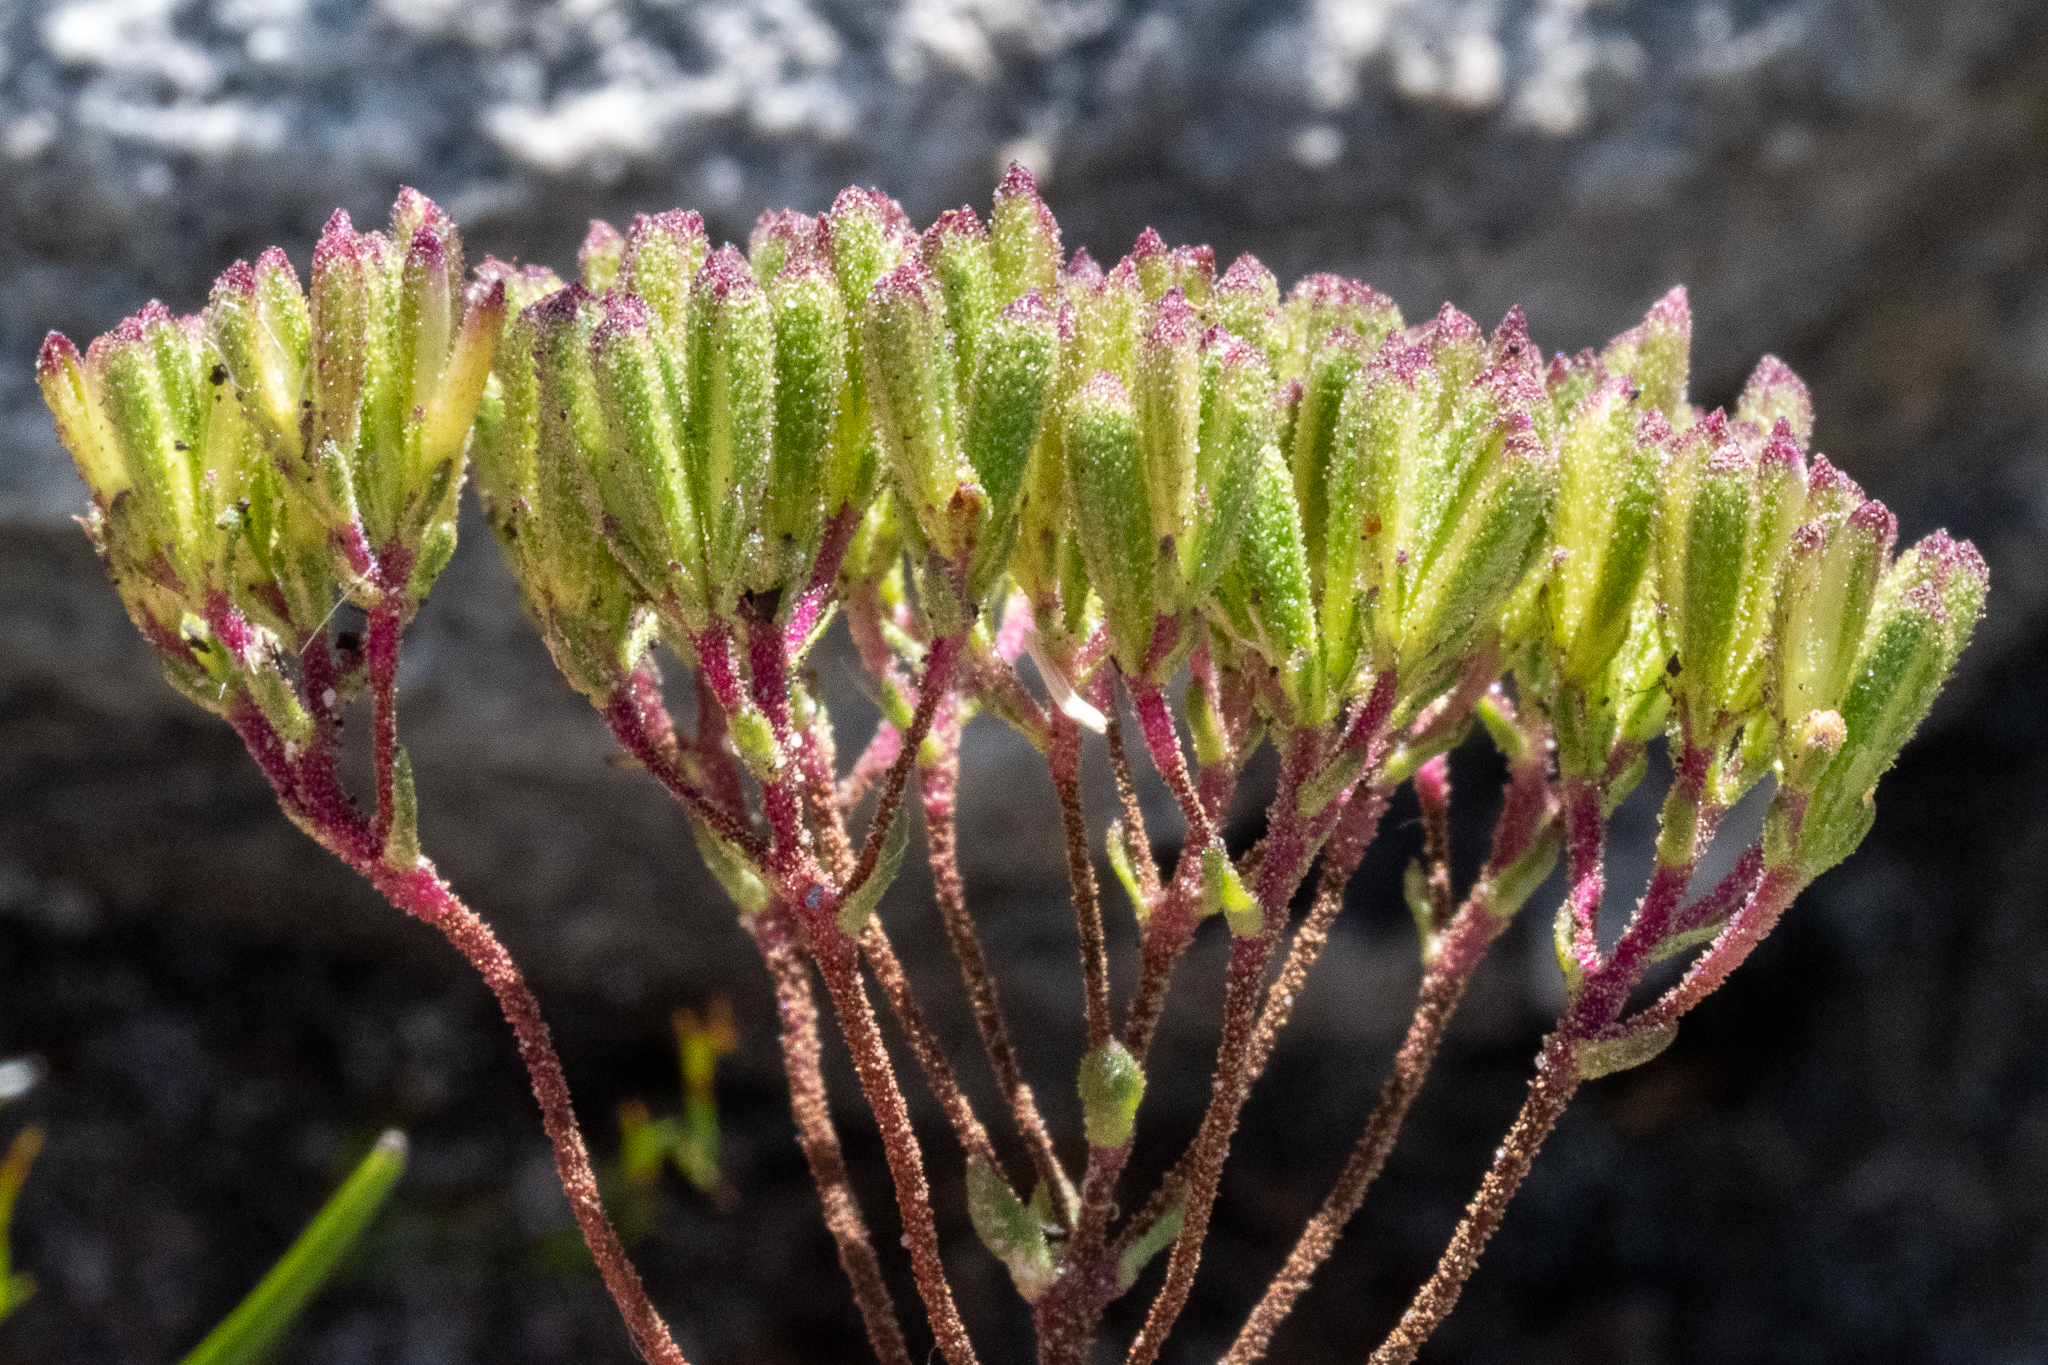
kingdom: Plantae
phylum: Tracheophyta
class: Magnoliopsida
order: Asterales
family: Asteraceae
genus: Corymbium
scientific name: Corymbium africanum
